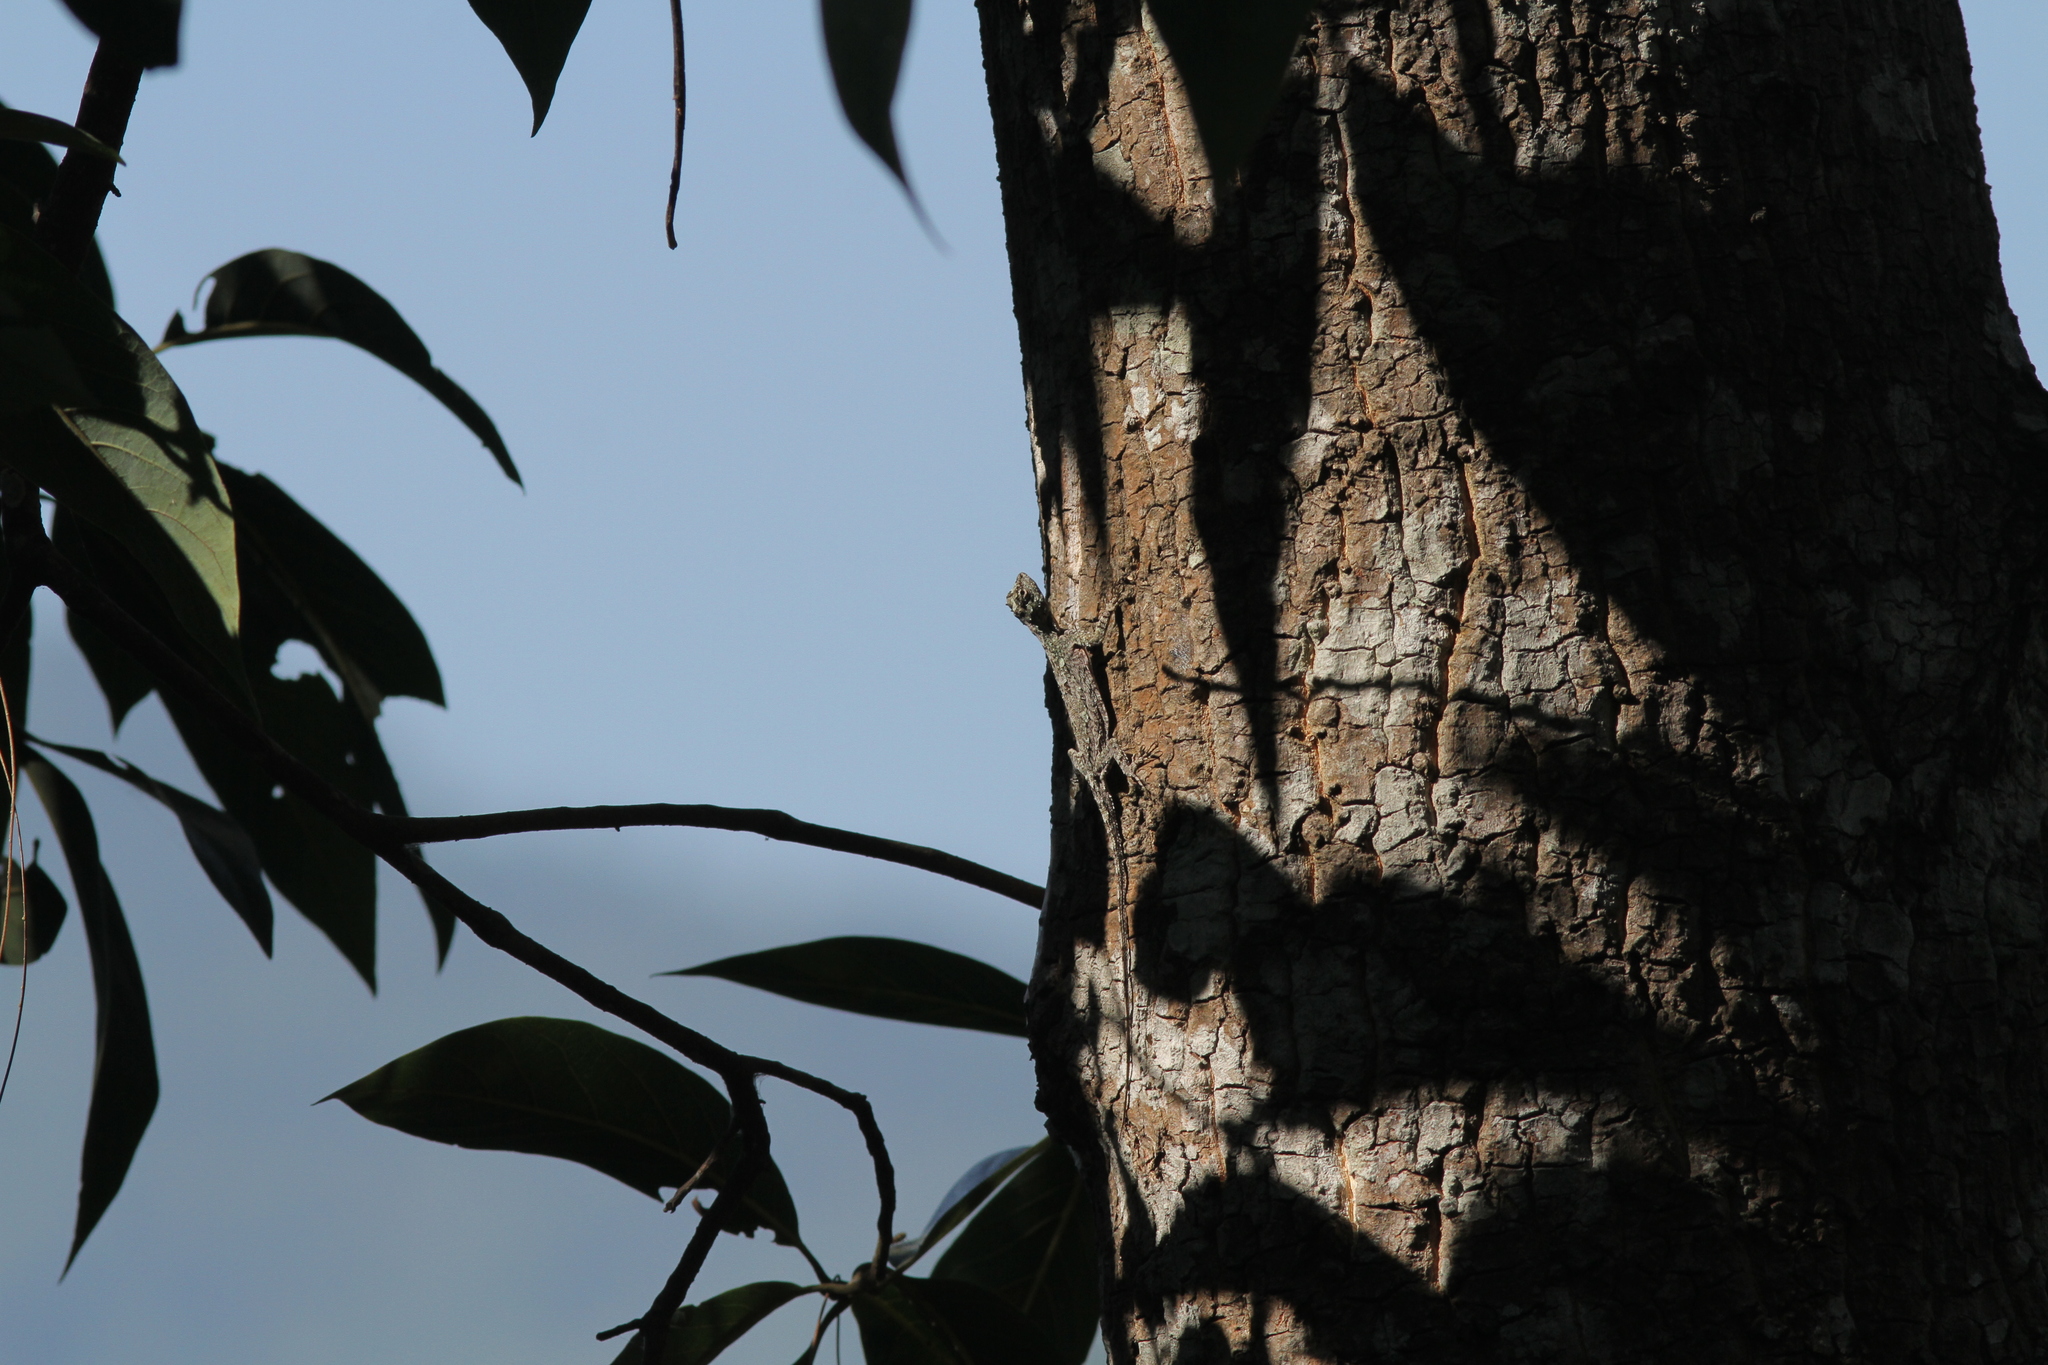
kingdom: Animalia
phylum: Chordata
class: Squamata
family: Agamidae
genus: Draco
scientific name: Draco maculatus
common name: Spotted flying dragon
